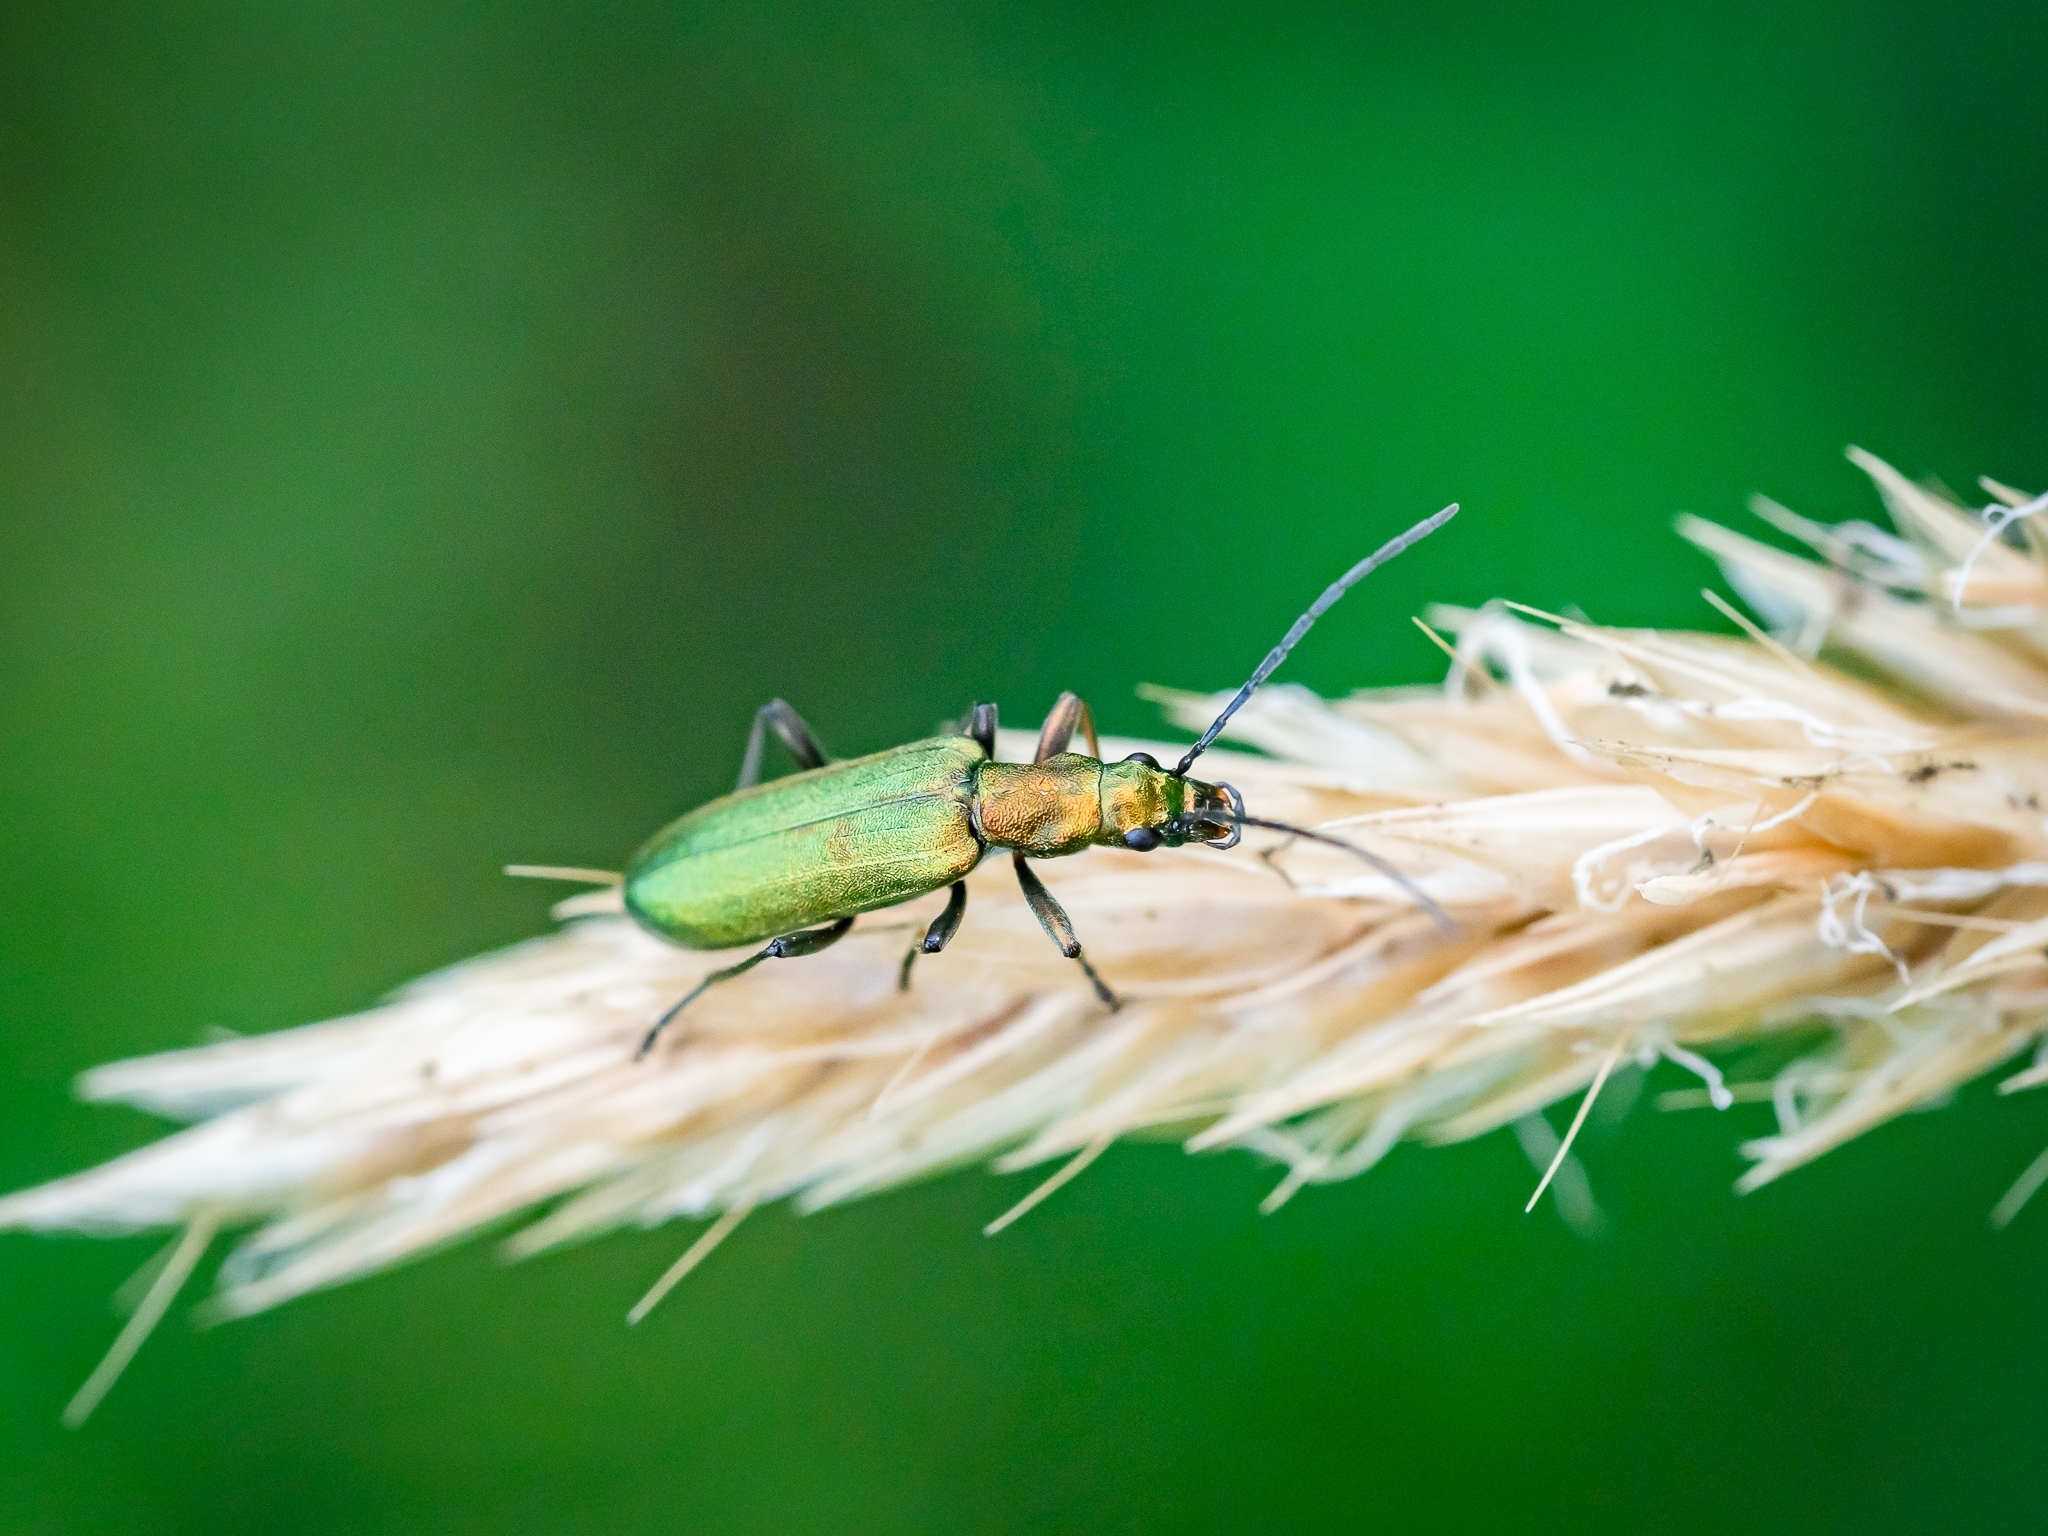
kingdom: Animalia
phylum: Arthropoda
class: Insecta
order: Coleoptera
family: Oedemeridae
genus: Chrysanthia
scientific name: Chrysanthia viridissima
